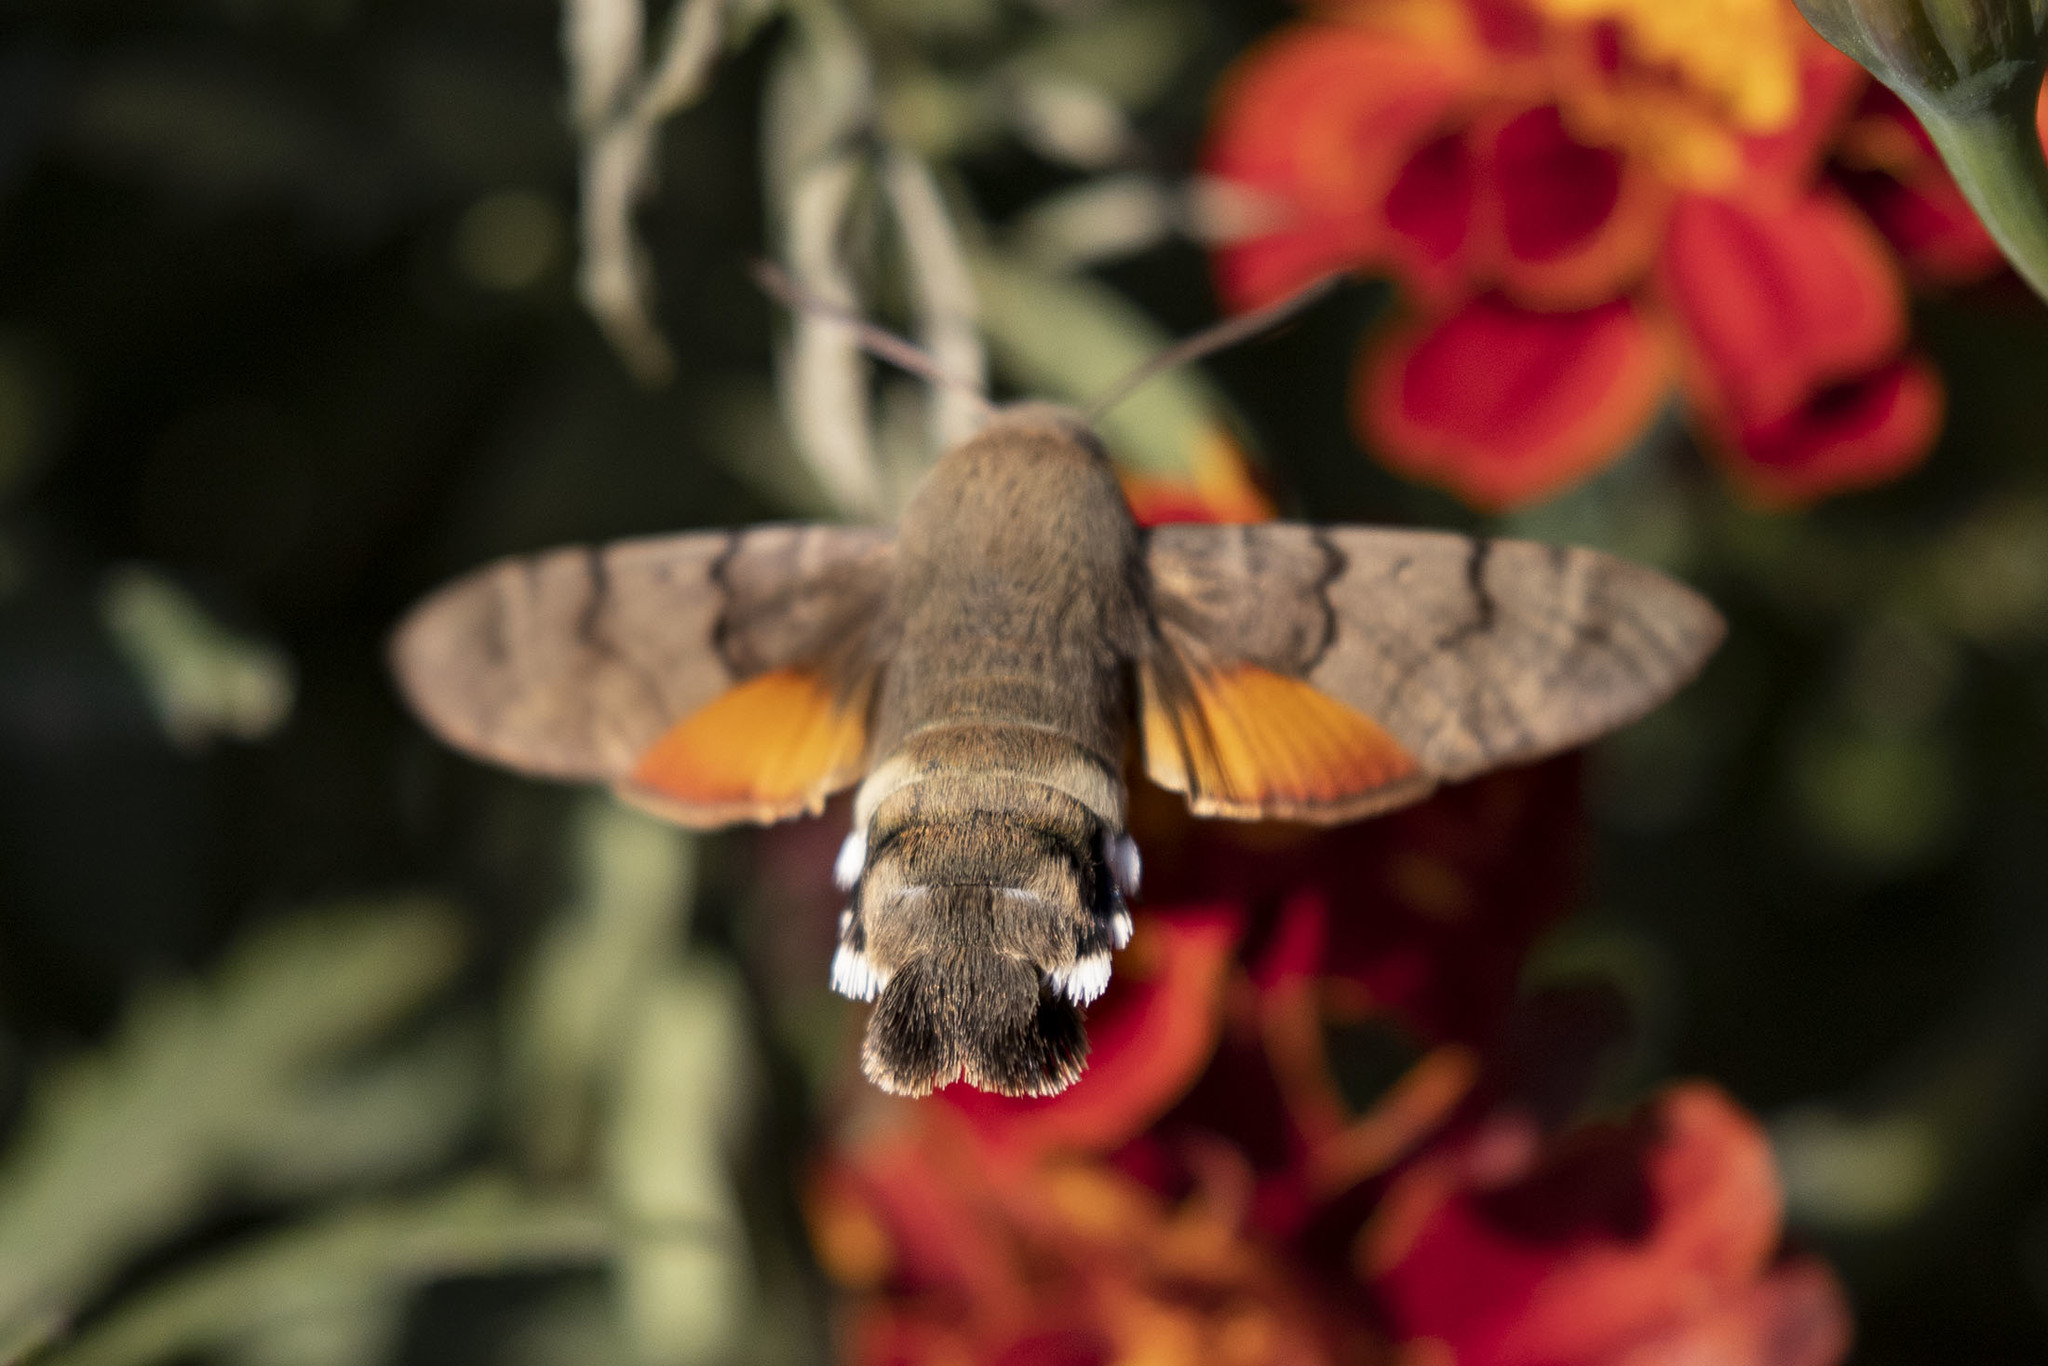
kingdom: Animalia
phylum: Arthropoda
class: Insecta
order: Lepidoptera
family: Sphingidae
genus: Macroglossum
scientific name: Macroglossum stellatarum
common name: Humming-bird hawk-moth
